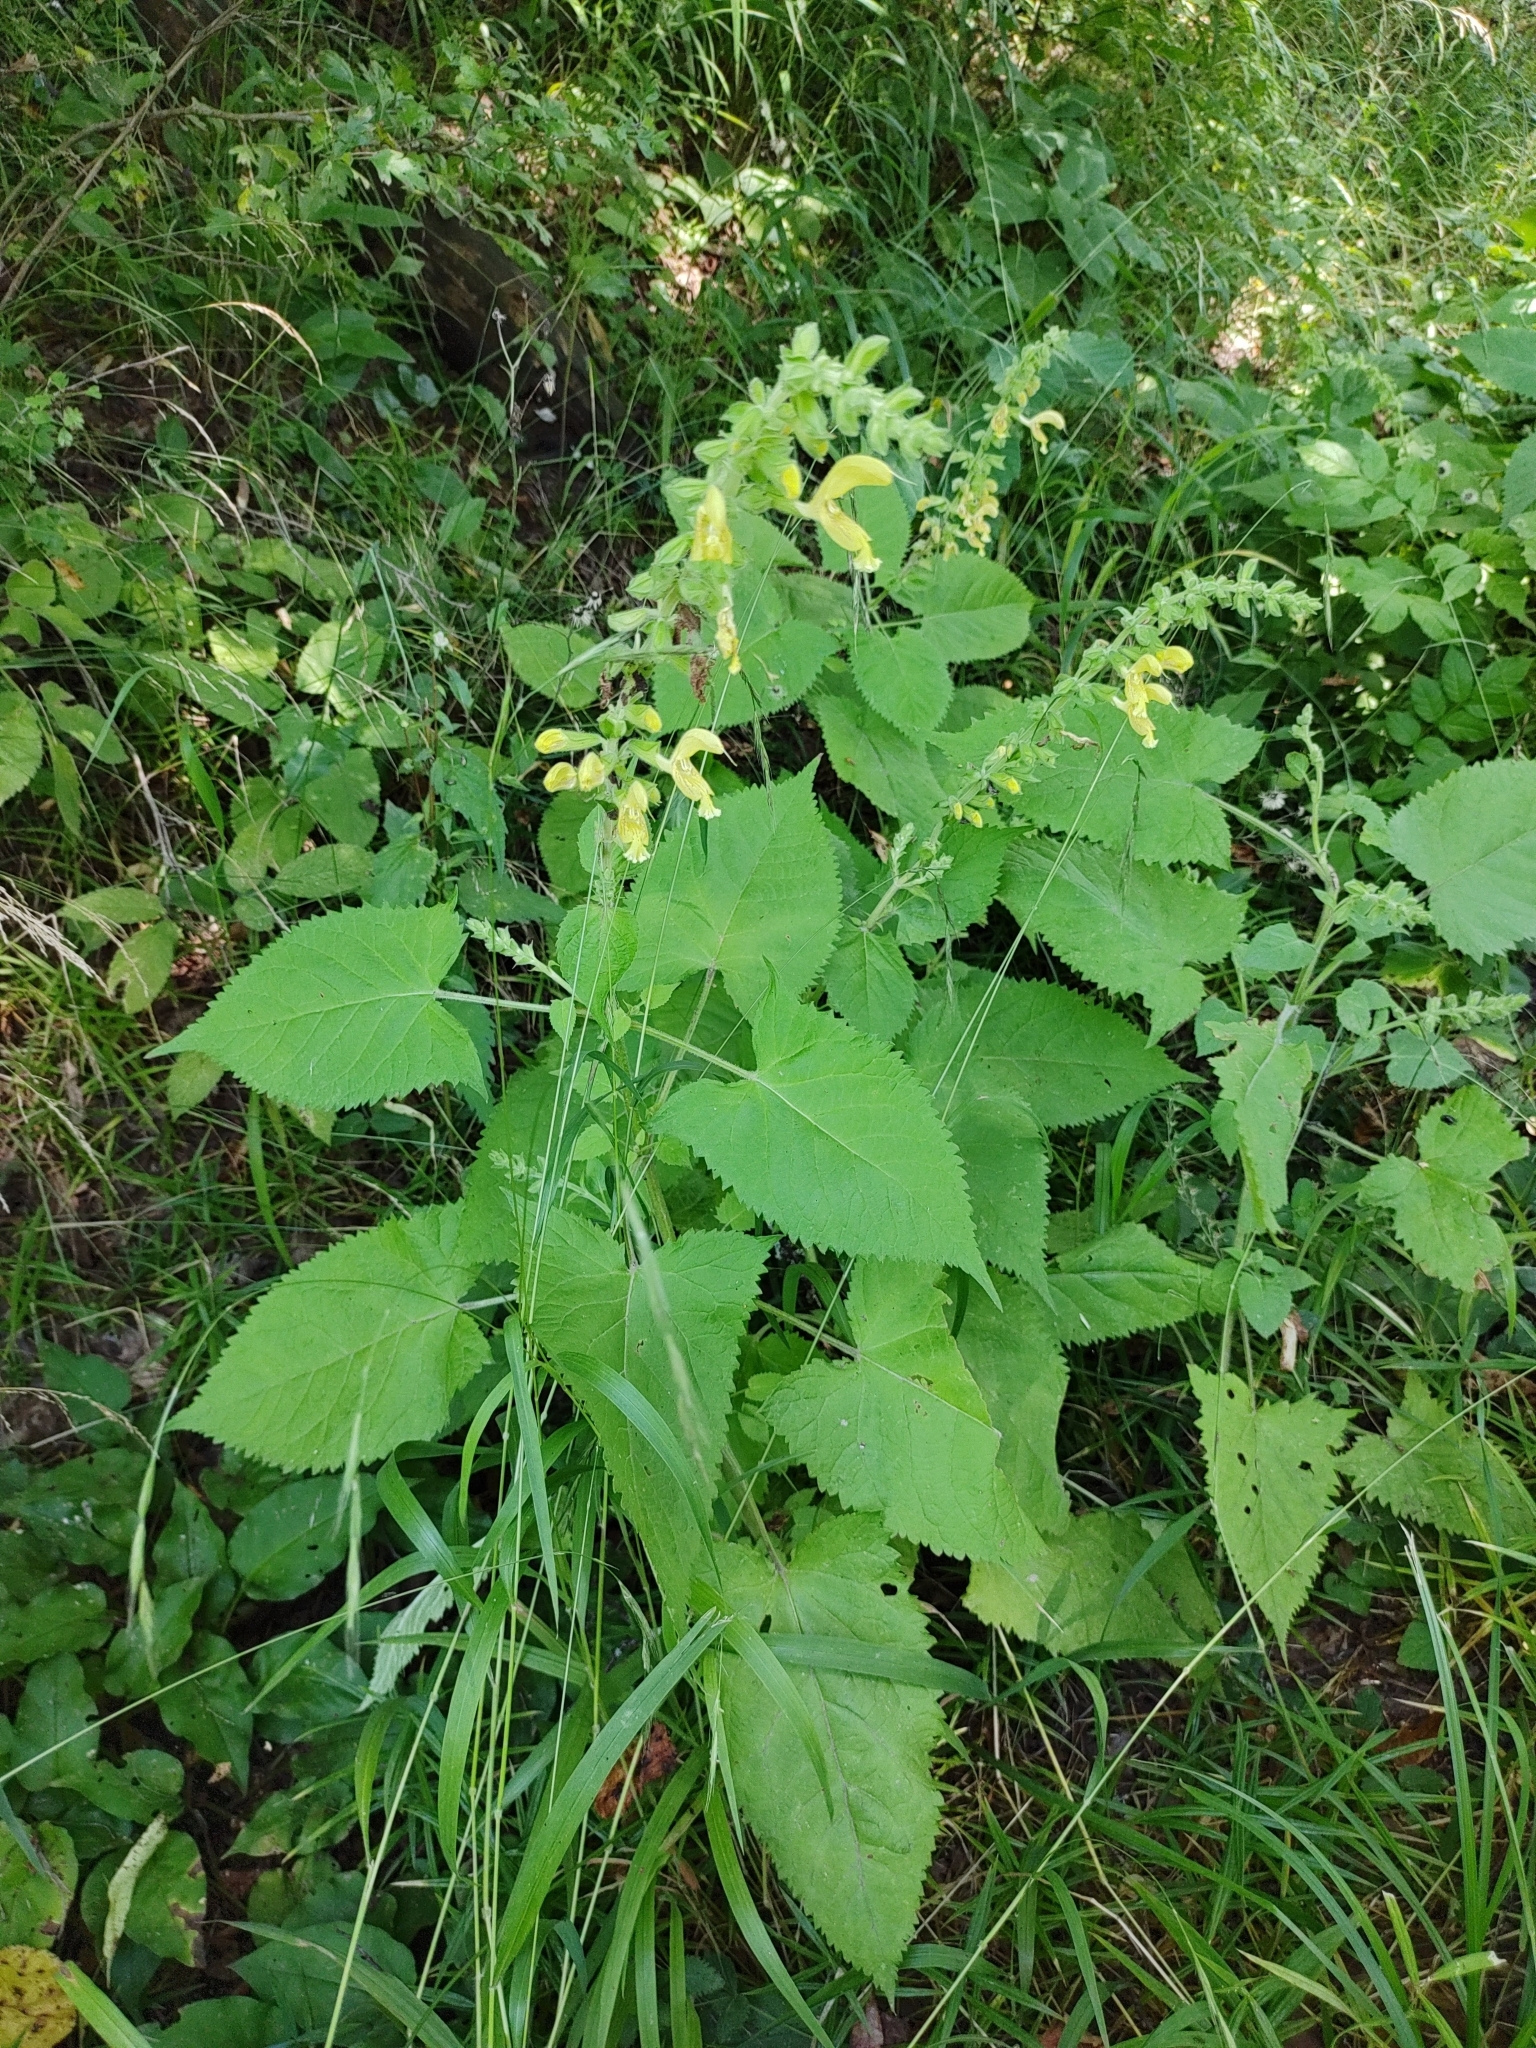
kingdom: Plantae
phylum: Tracheophyta
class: Magnoliopsida
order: Lamiales
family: Lamiaceae
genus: Salvia
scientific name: Salvia glutinosa
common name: Sticky clary
